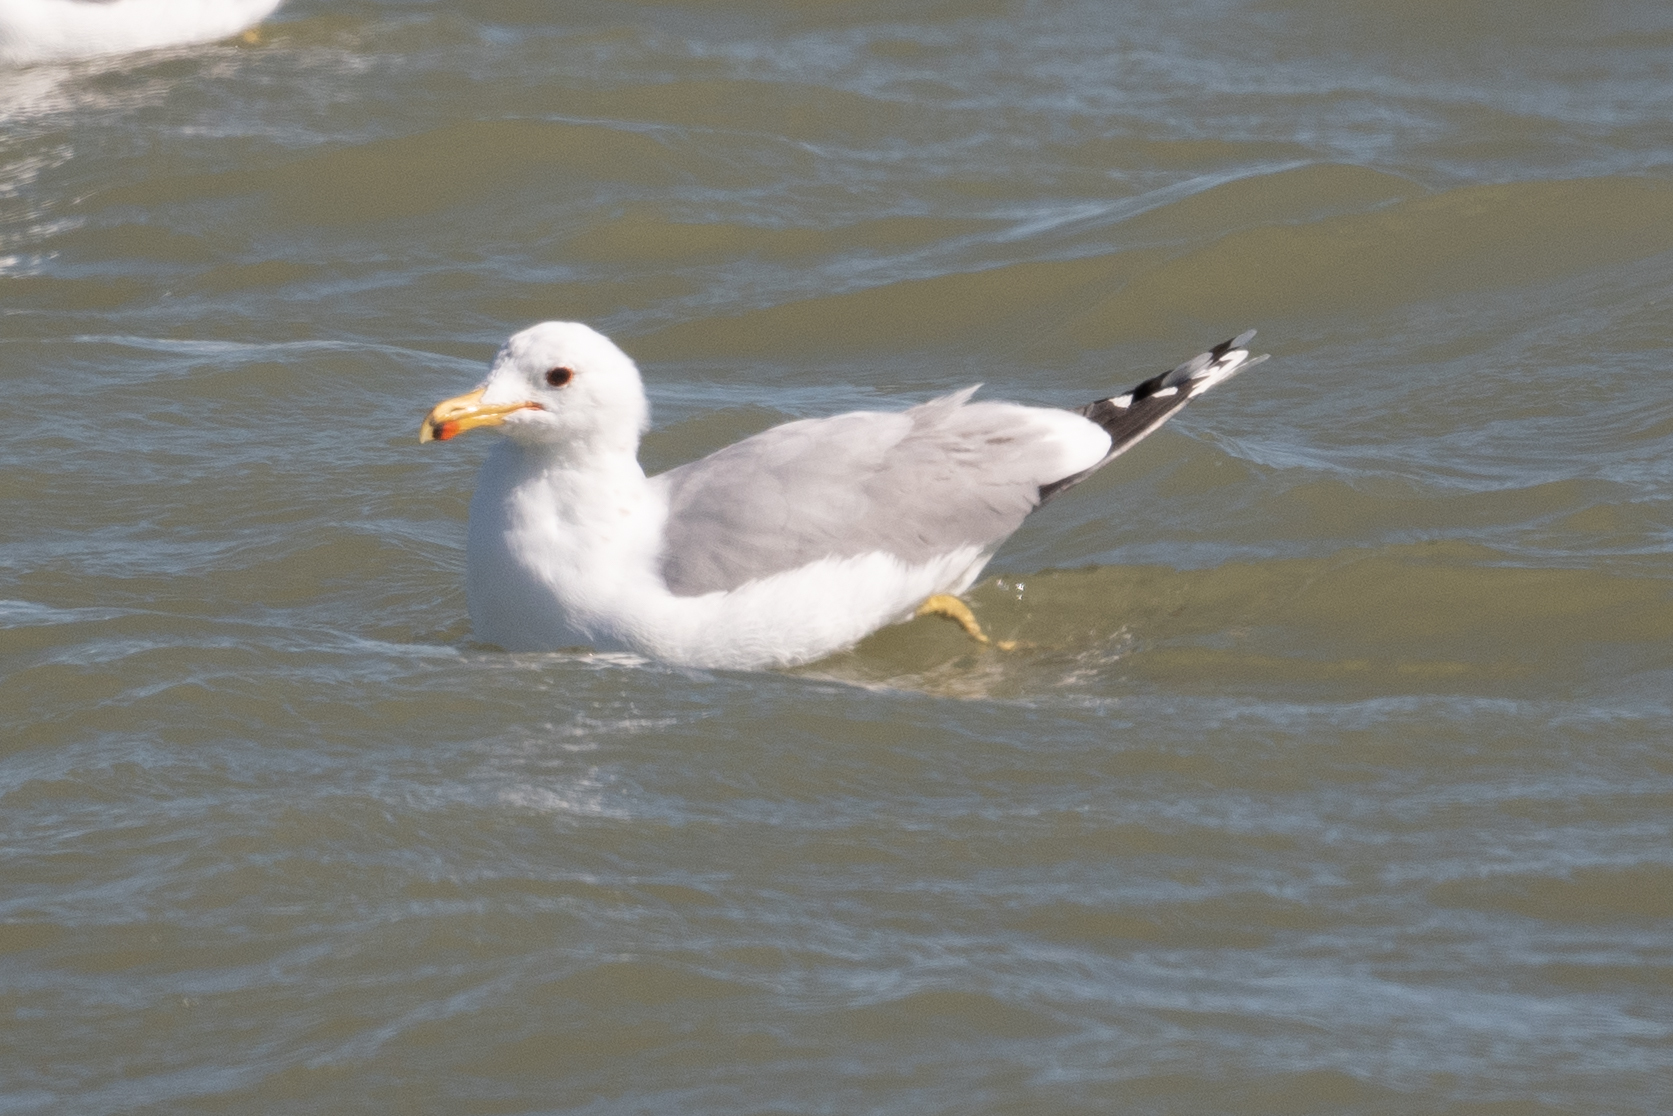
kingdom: Animalia
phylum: Chordata
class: Aves
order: Charadriiformes
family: Laridae
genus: Larus
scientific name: Larus californicus
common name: California gull
